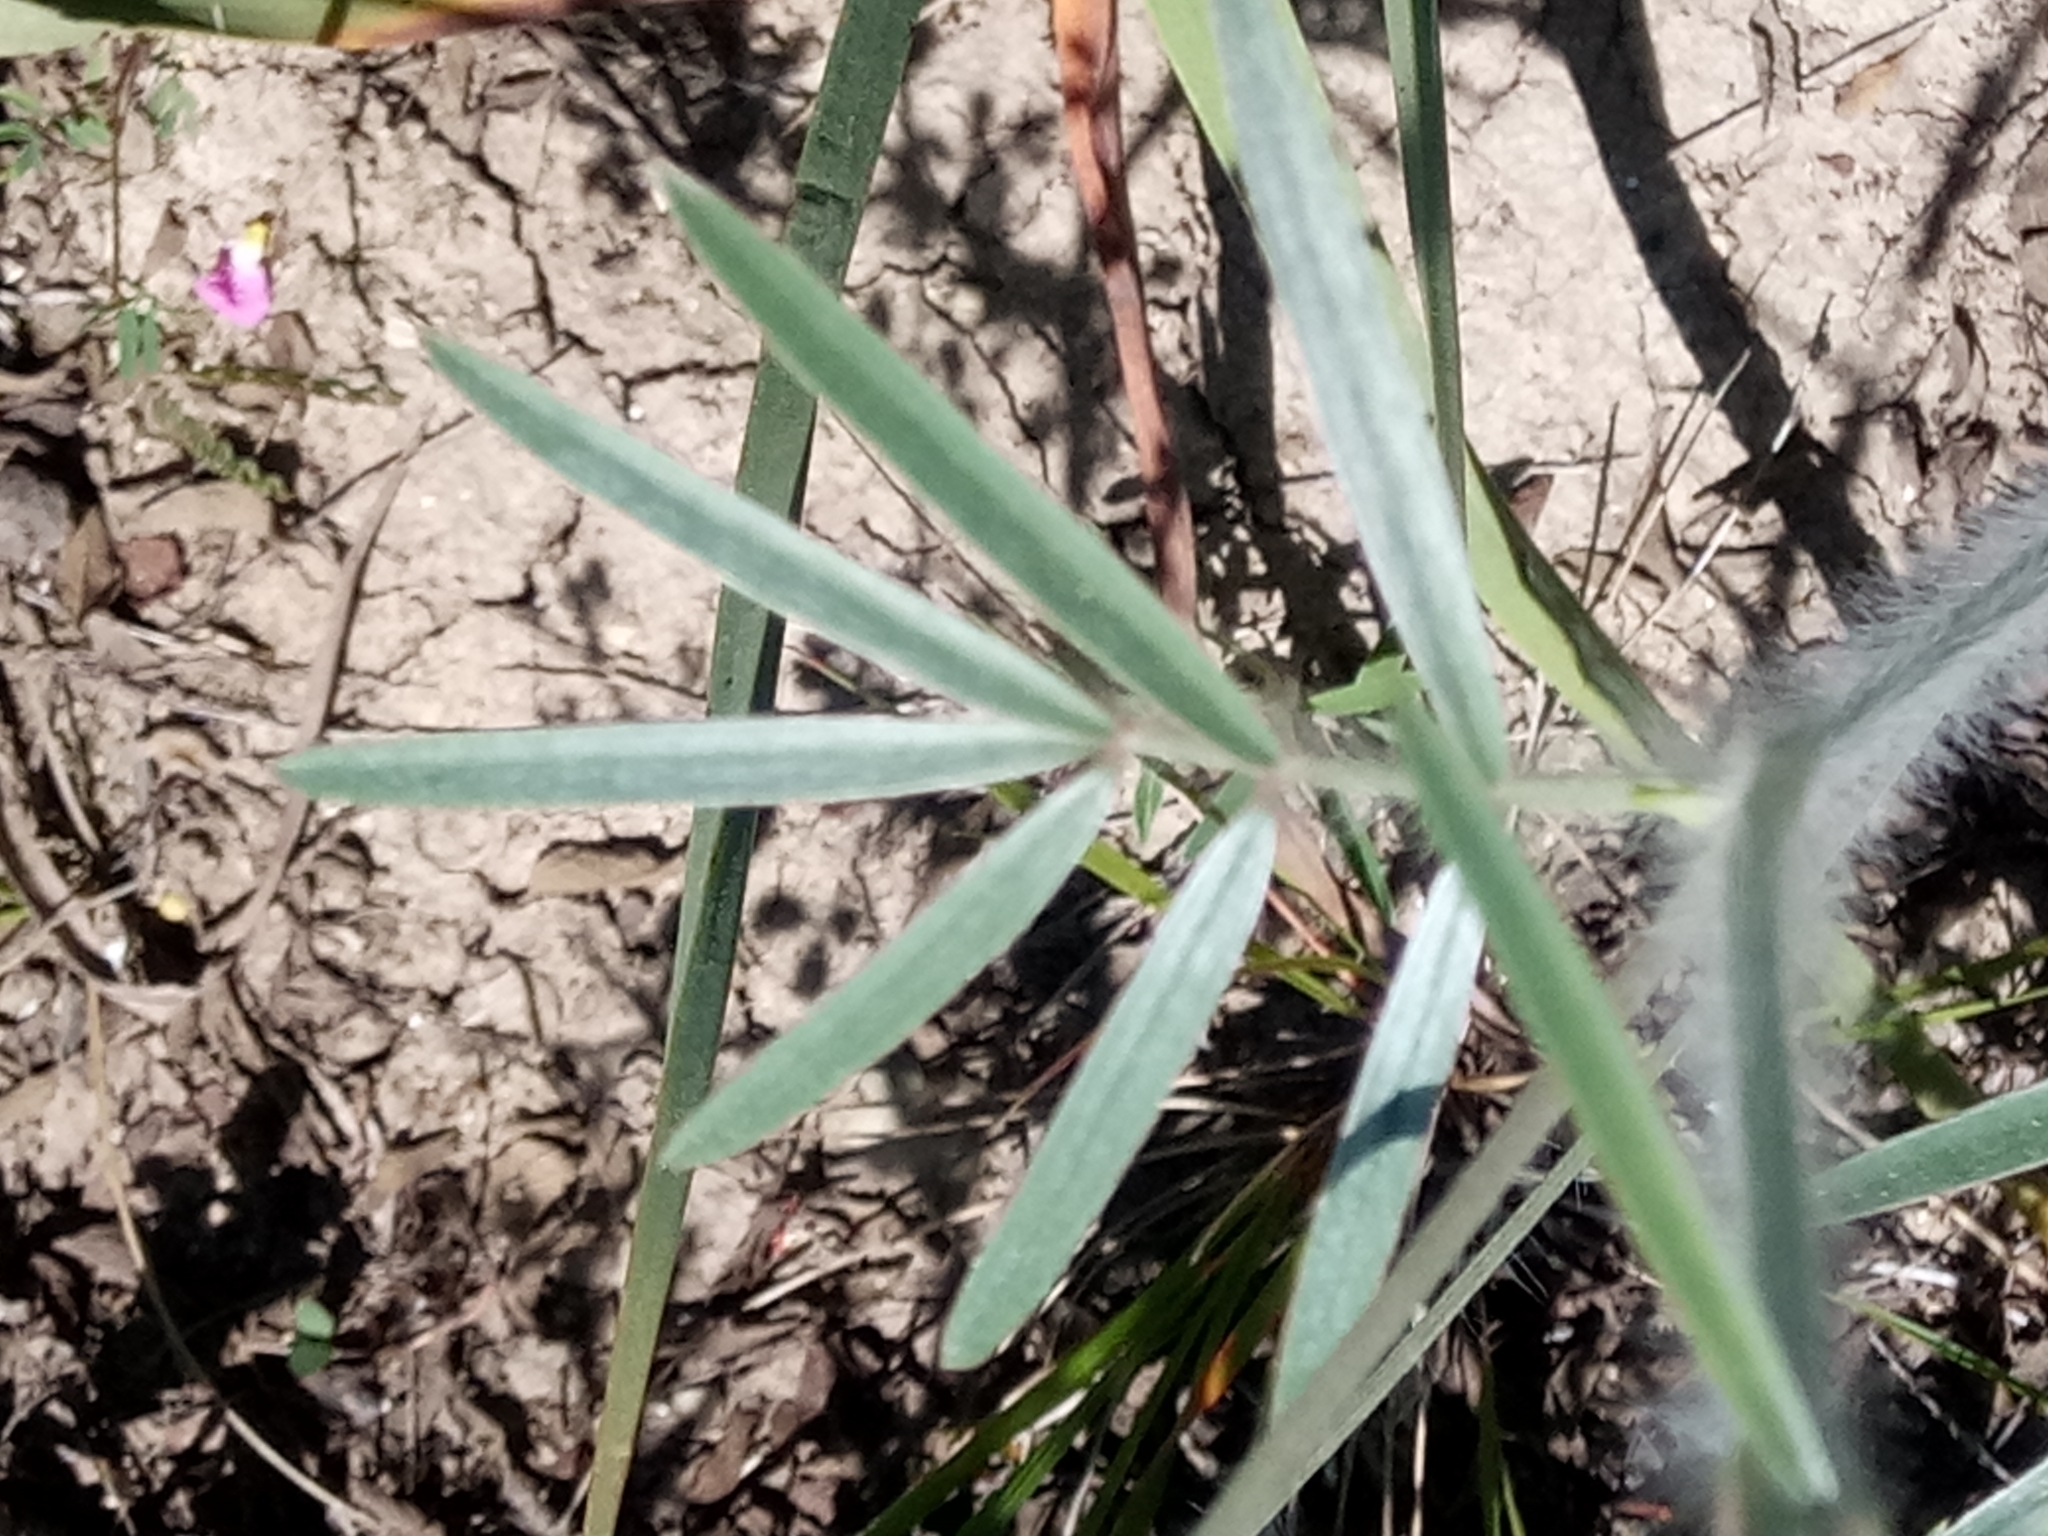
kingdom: Plantae
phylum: Tracheophyta
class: Magnoliopsida
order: Fabales
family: Fabaceae
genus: Ebenus
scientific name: Ebenus pinnata
